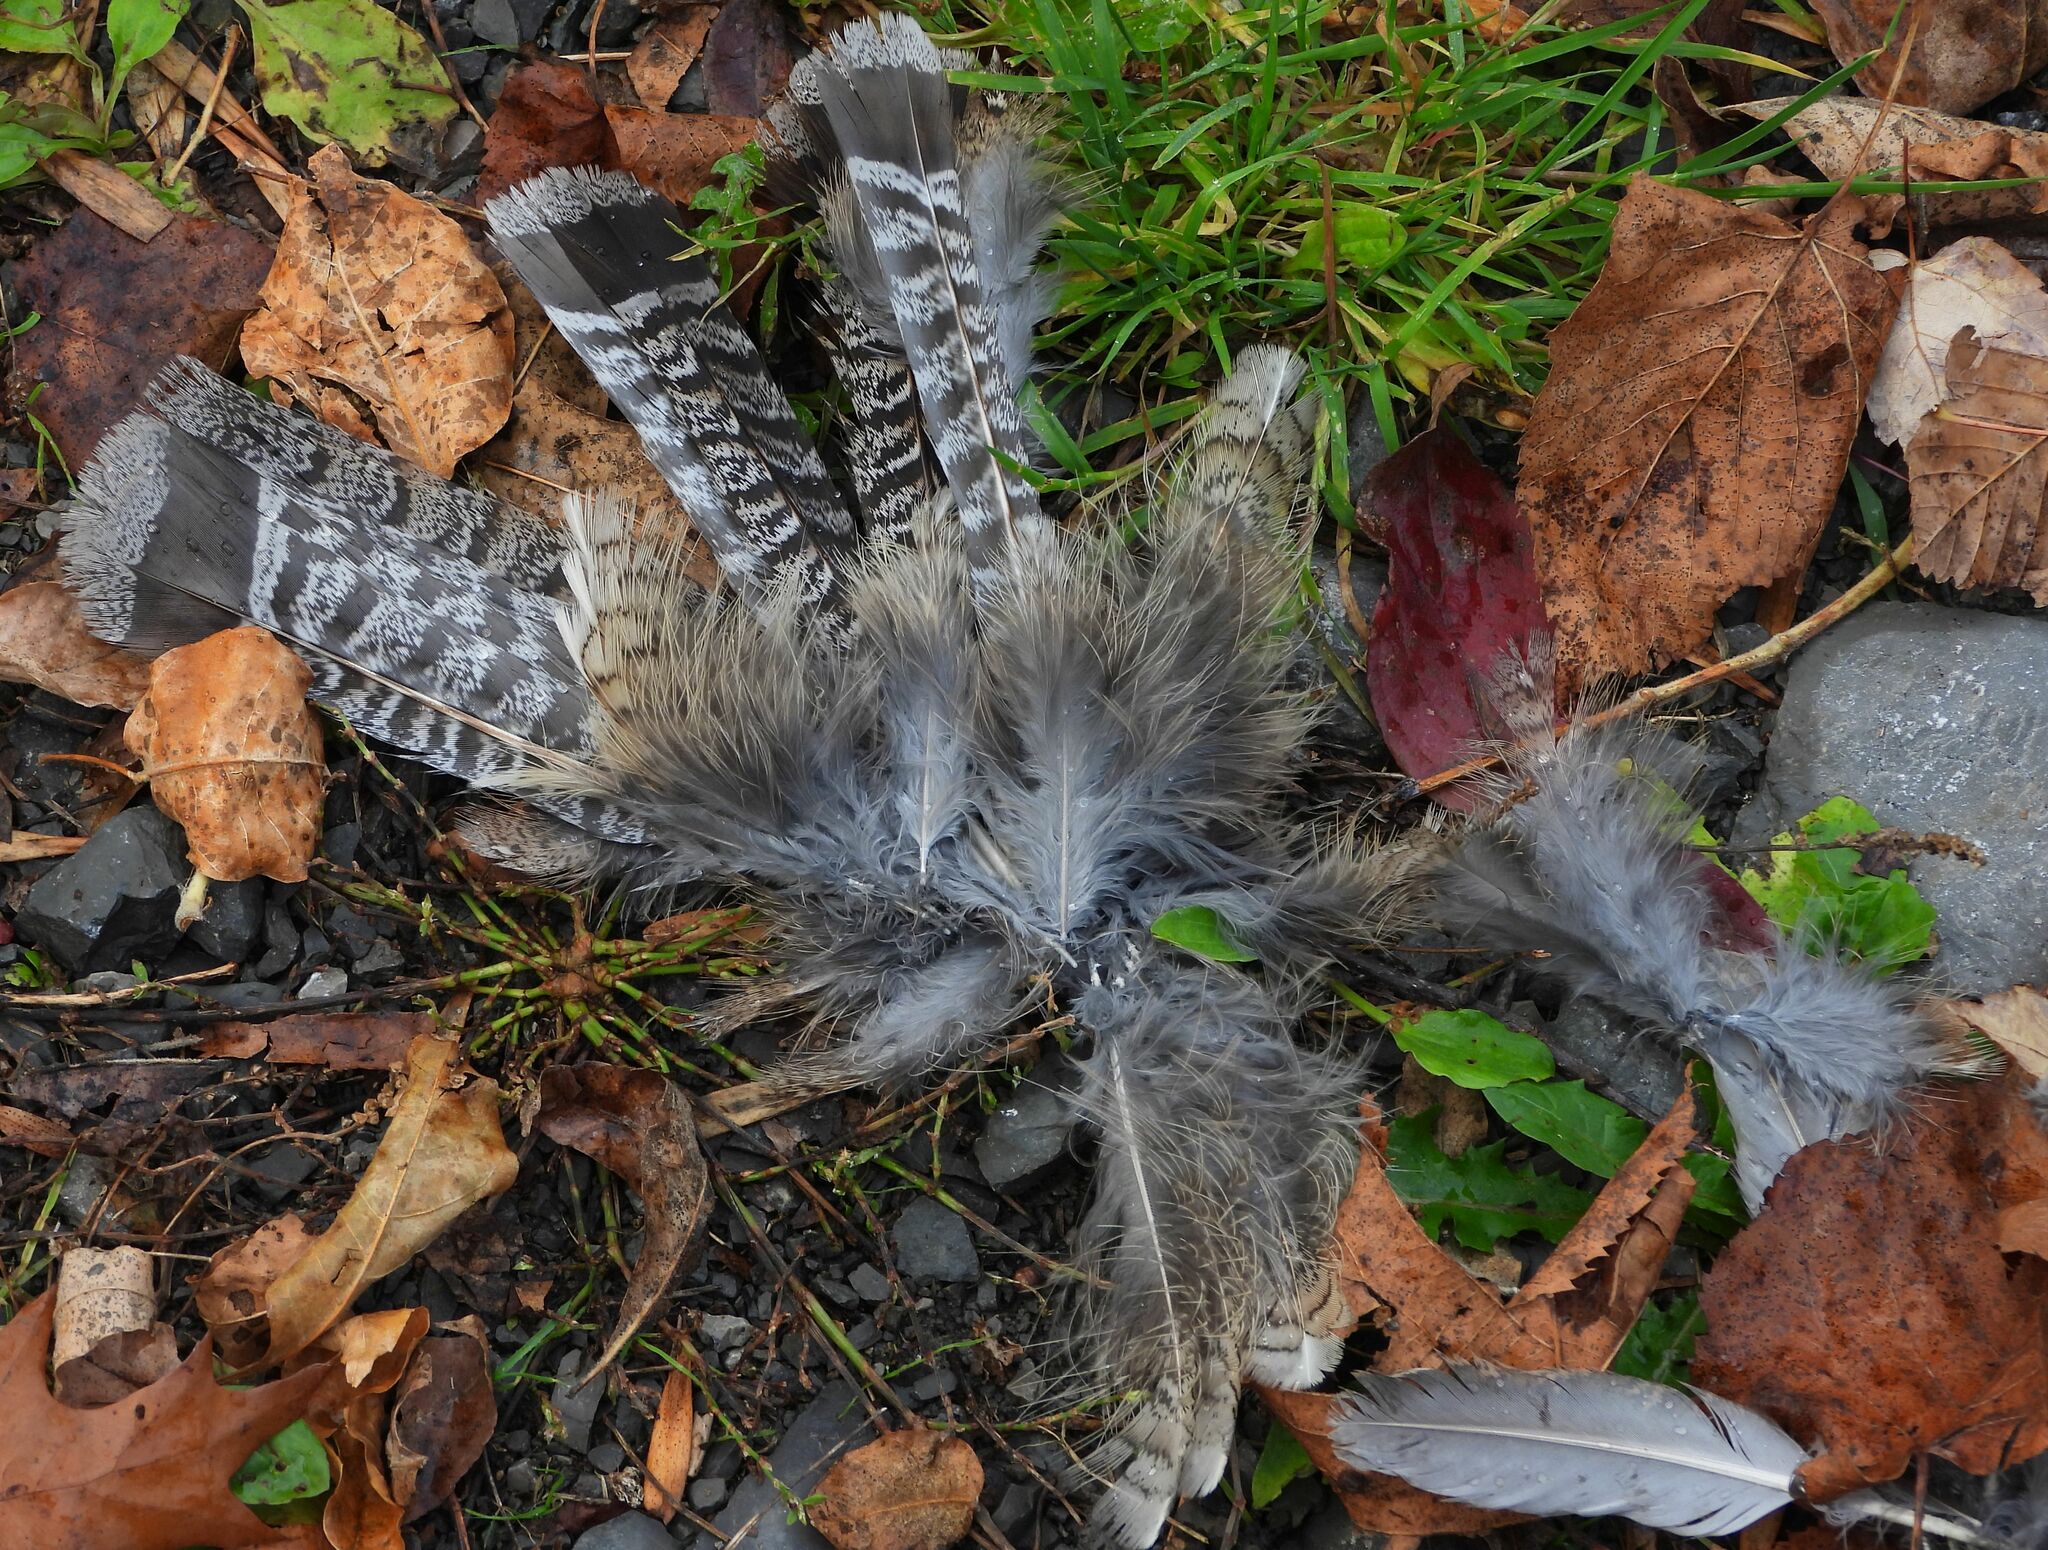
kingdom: Animalia
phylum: Chordata
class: Aves
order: Galliformes
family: Phasianidae
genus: Bonasa
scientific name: Bonasa umbellus
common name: Ruffed grouse
